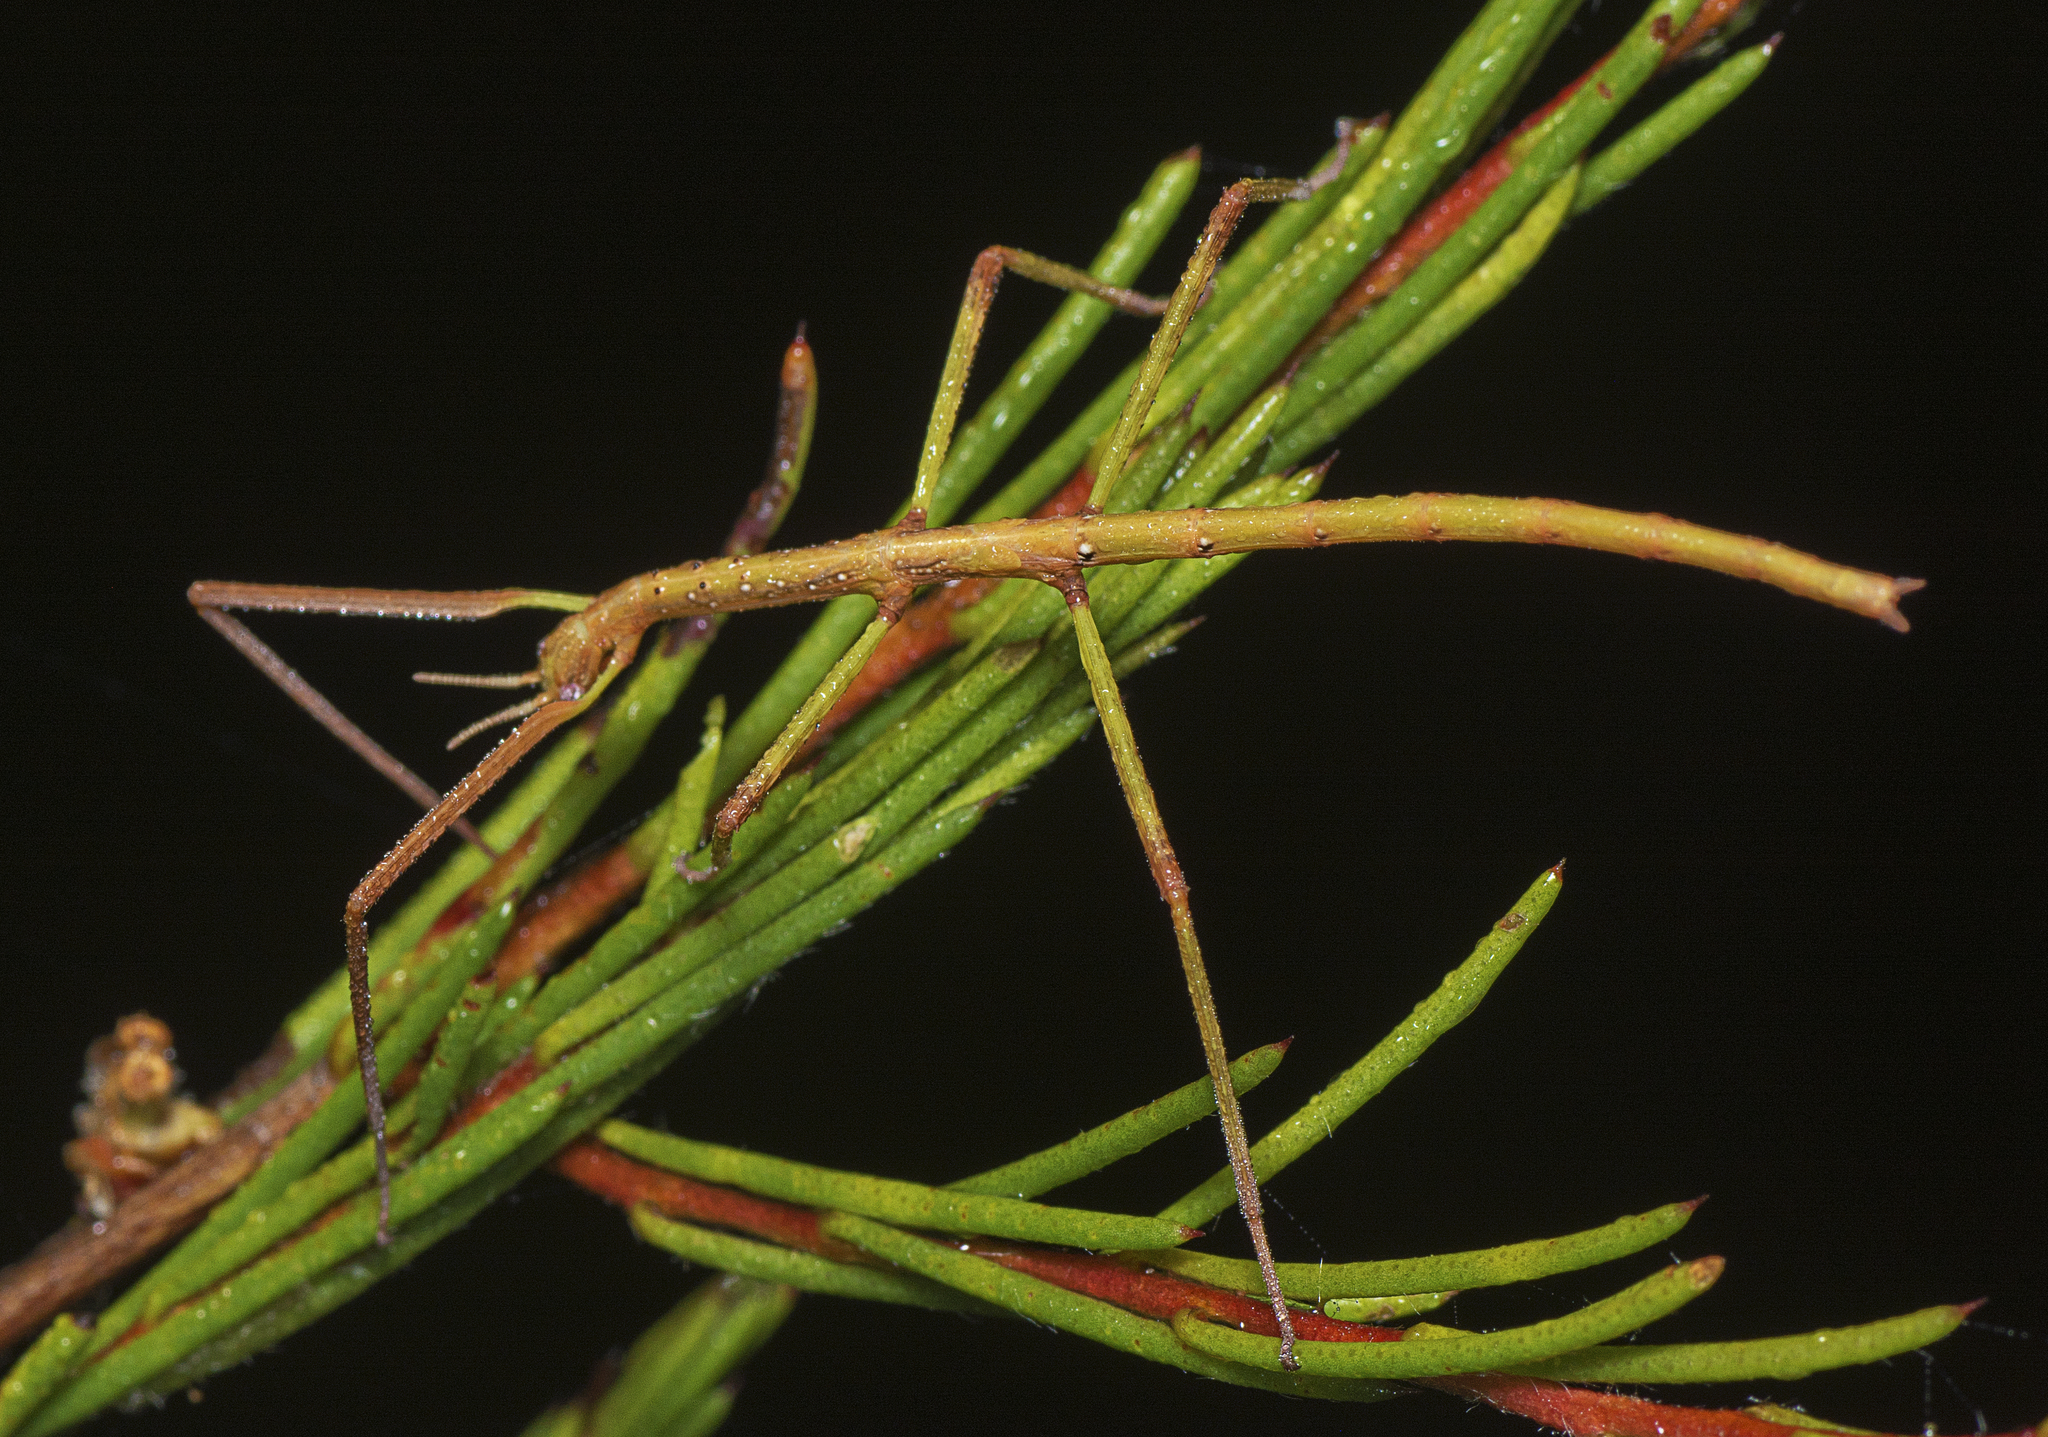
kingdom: Animalia
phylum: Arthropoda
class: Insecta
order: Phasmida
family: Phasmatidae
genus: Anchiale
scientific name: Anchiale austrotessulata
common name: Tessellated stick-insect
